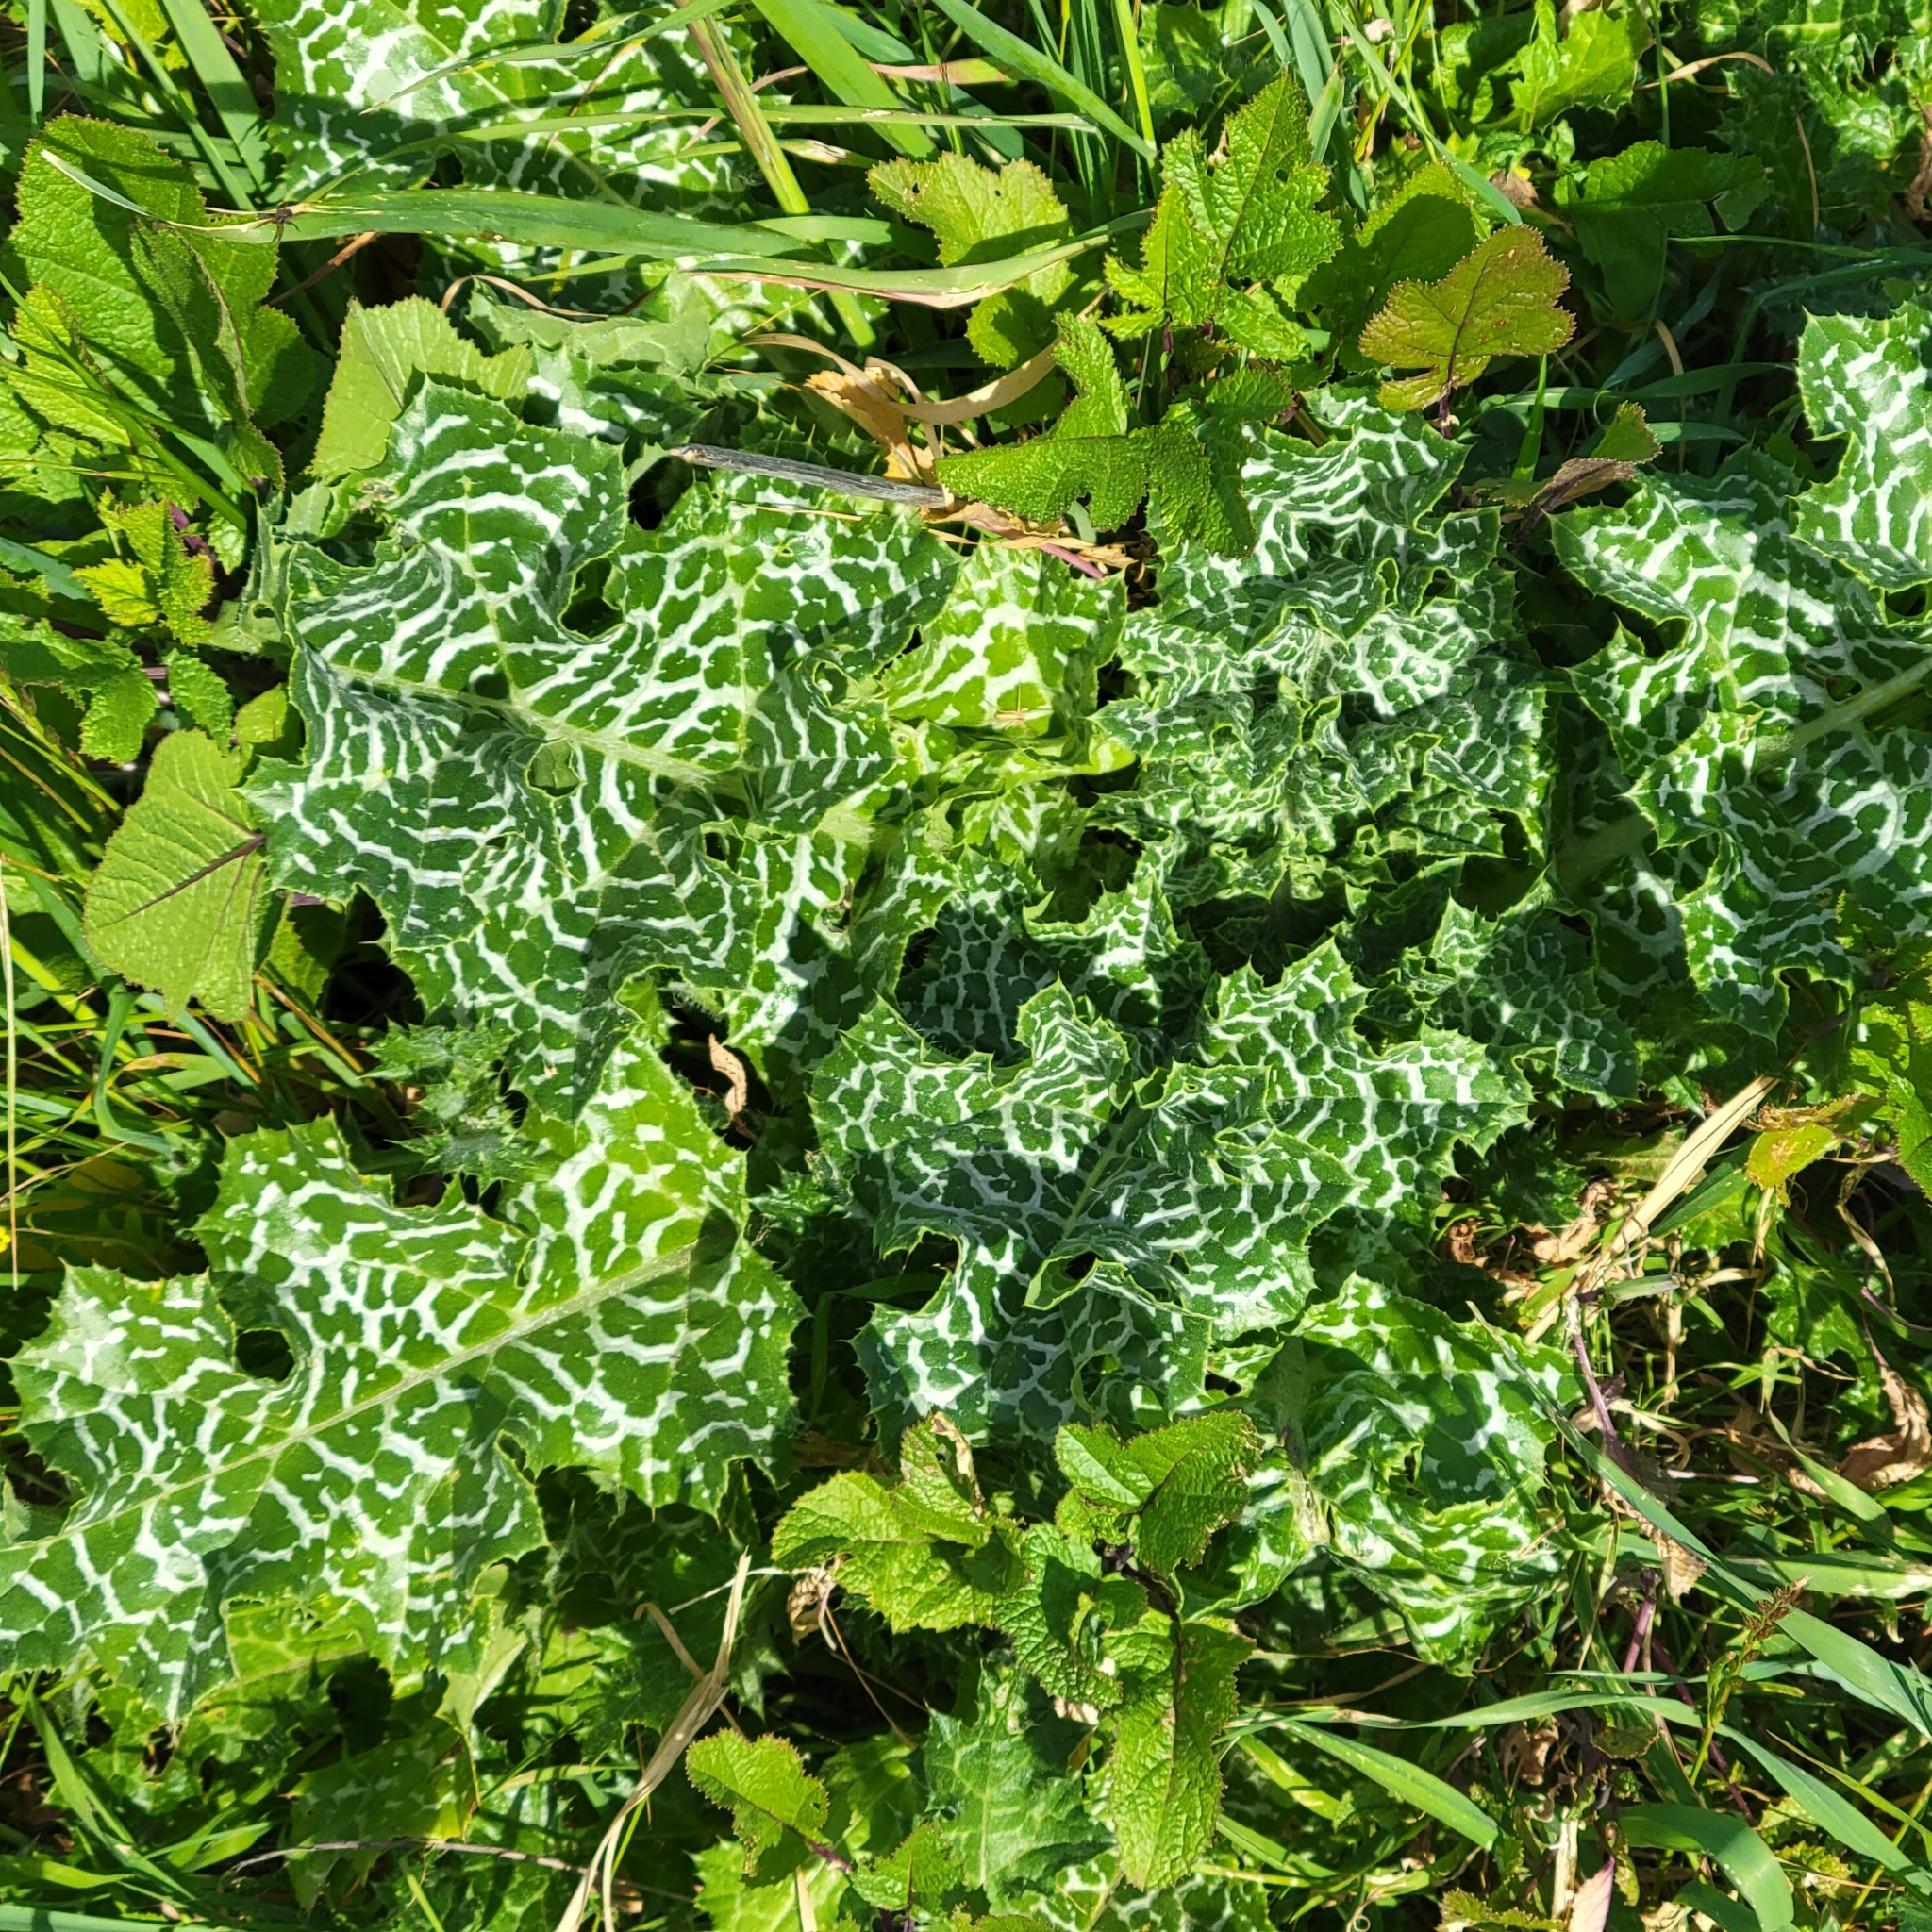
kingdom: Plantae
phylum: Tracheophyta
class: Magnoliopsida
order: Asterales
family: Asteraceae
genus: Silybum
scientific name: Silybum marianum
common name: Milk thistle
